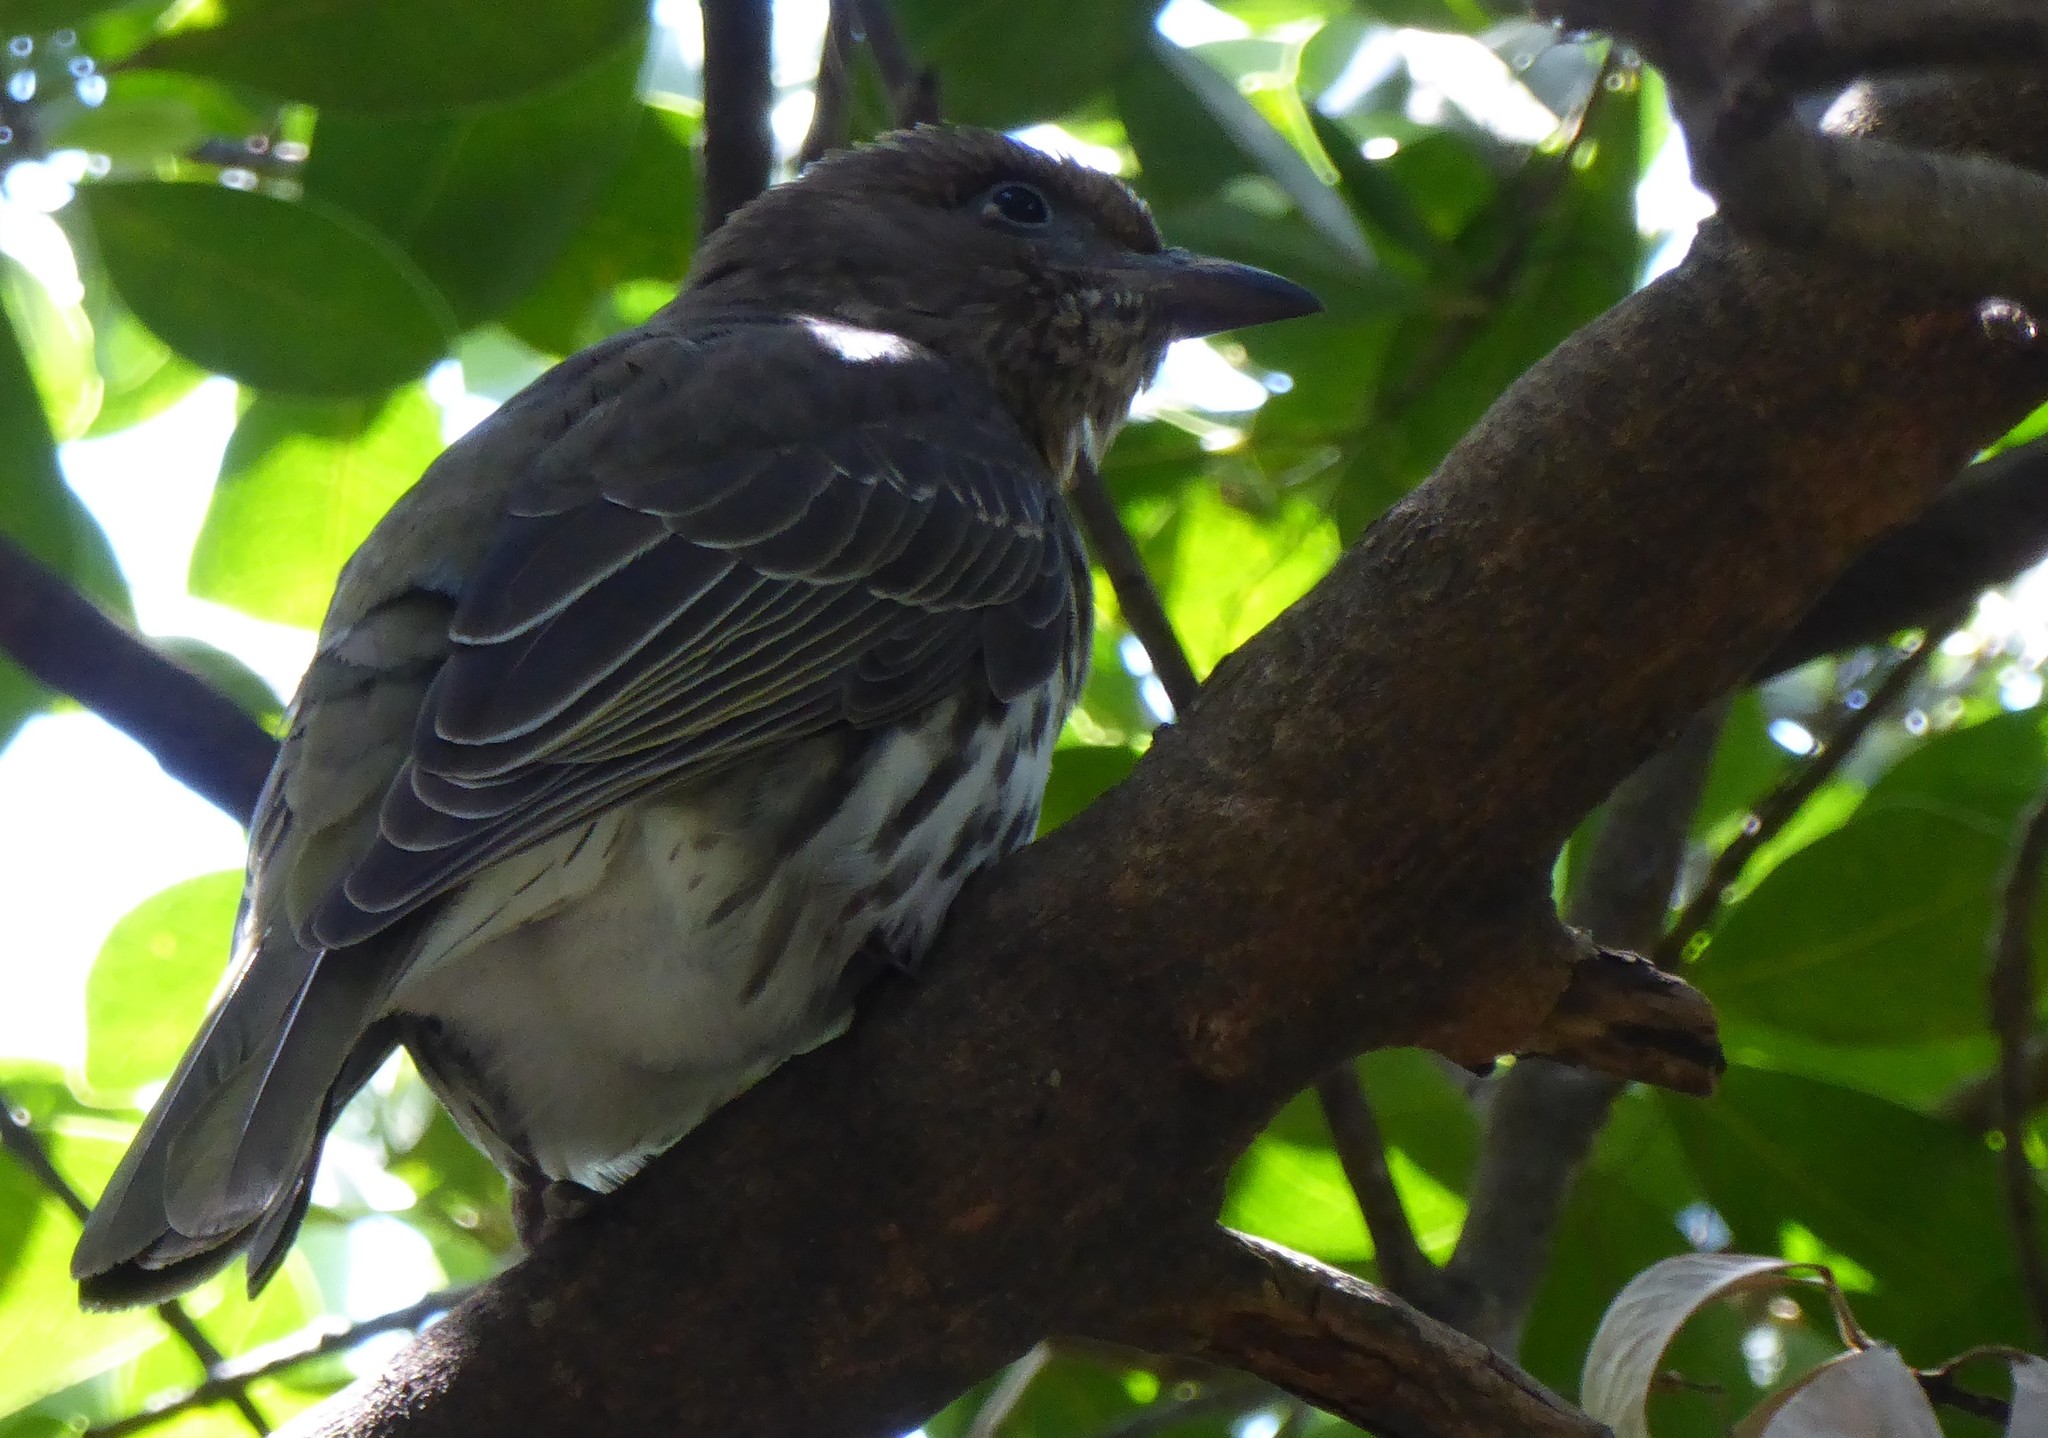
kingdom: Animalia
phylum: Chordata
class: Aves
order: Passeriformes
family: Oriolidae
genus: Sphecotheres
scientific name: Sphecotheres vieilloti
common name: Australasian figbird
